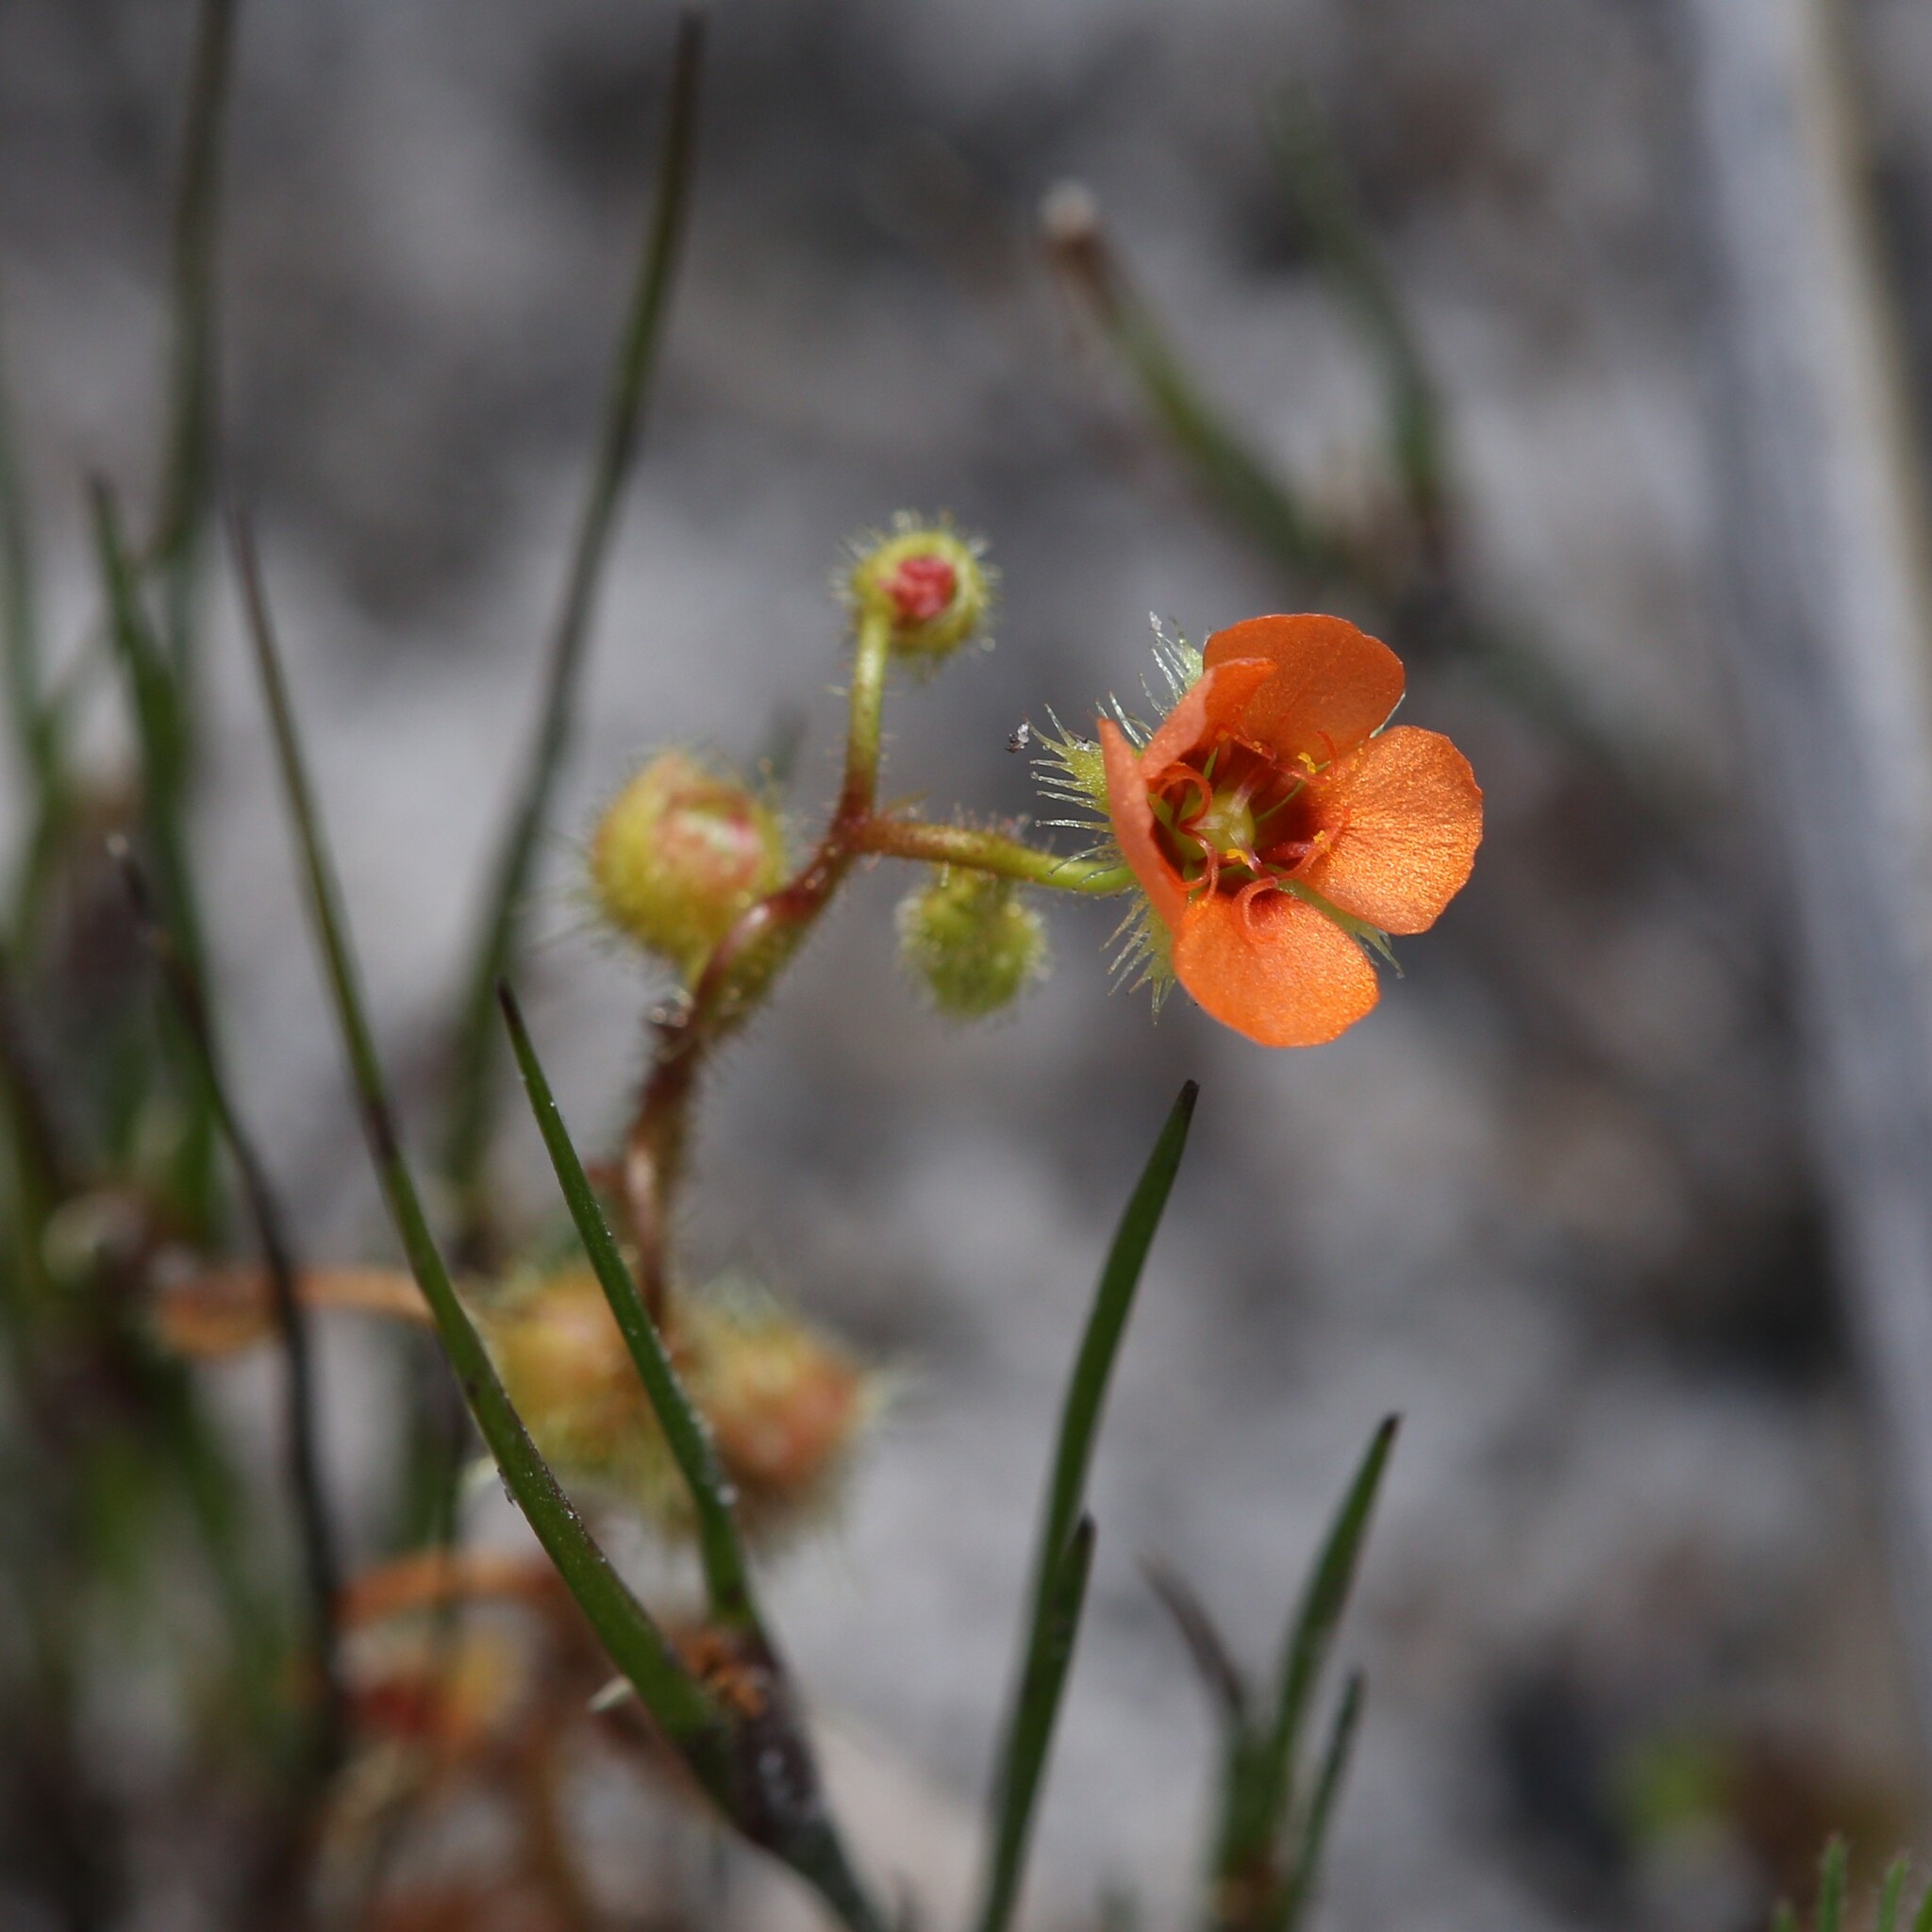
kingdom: Plantae
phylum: Tracheophyta
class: Magnoliopsida
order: Caryophyllales
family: Droseraceae
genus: Drosera
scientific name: Drosera glanduligera
